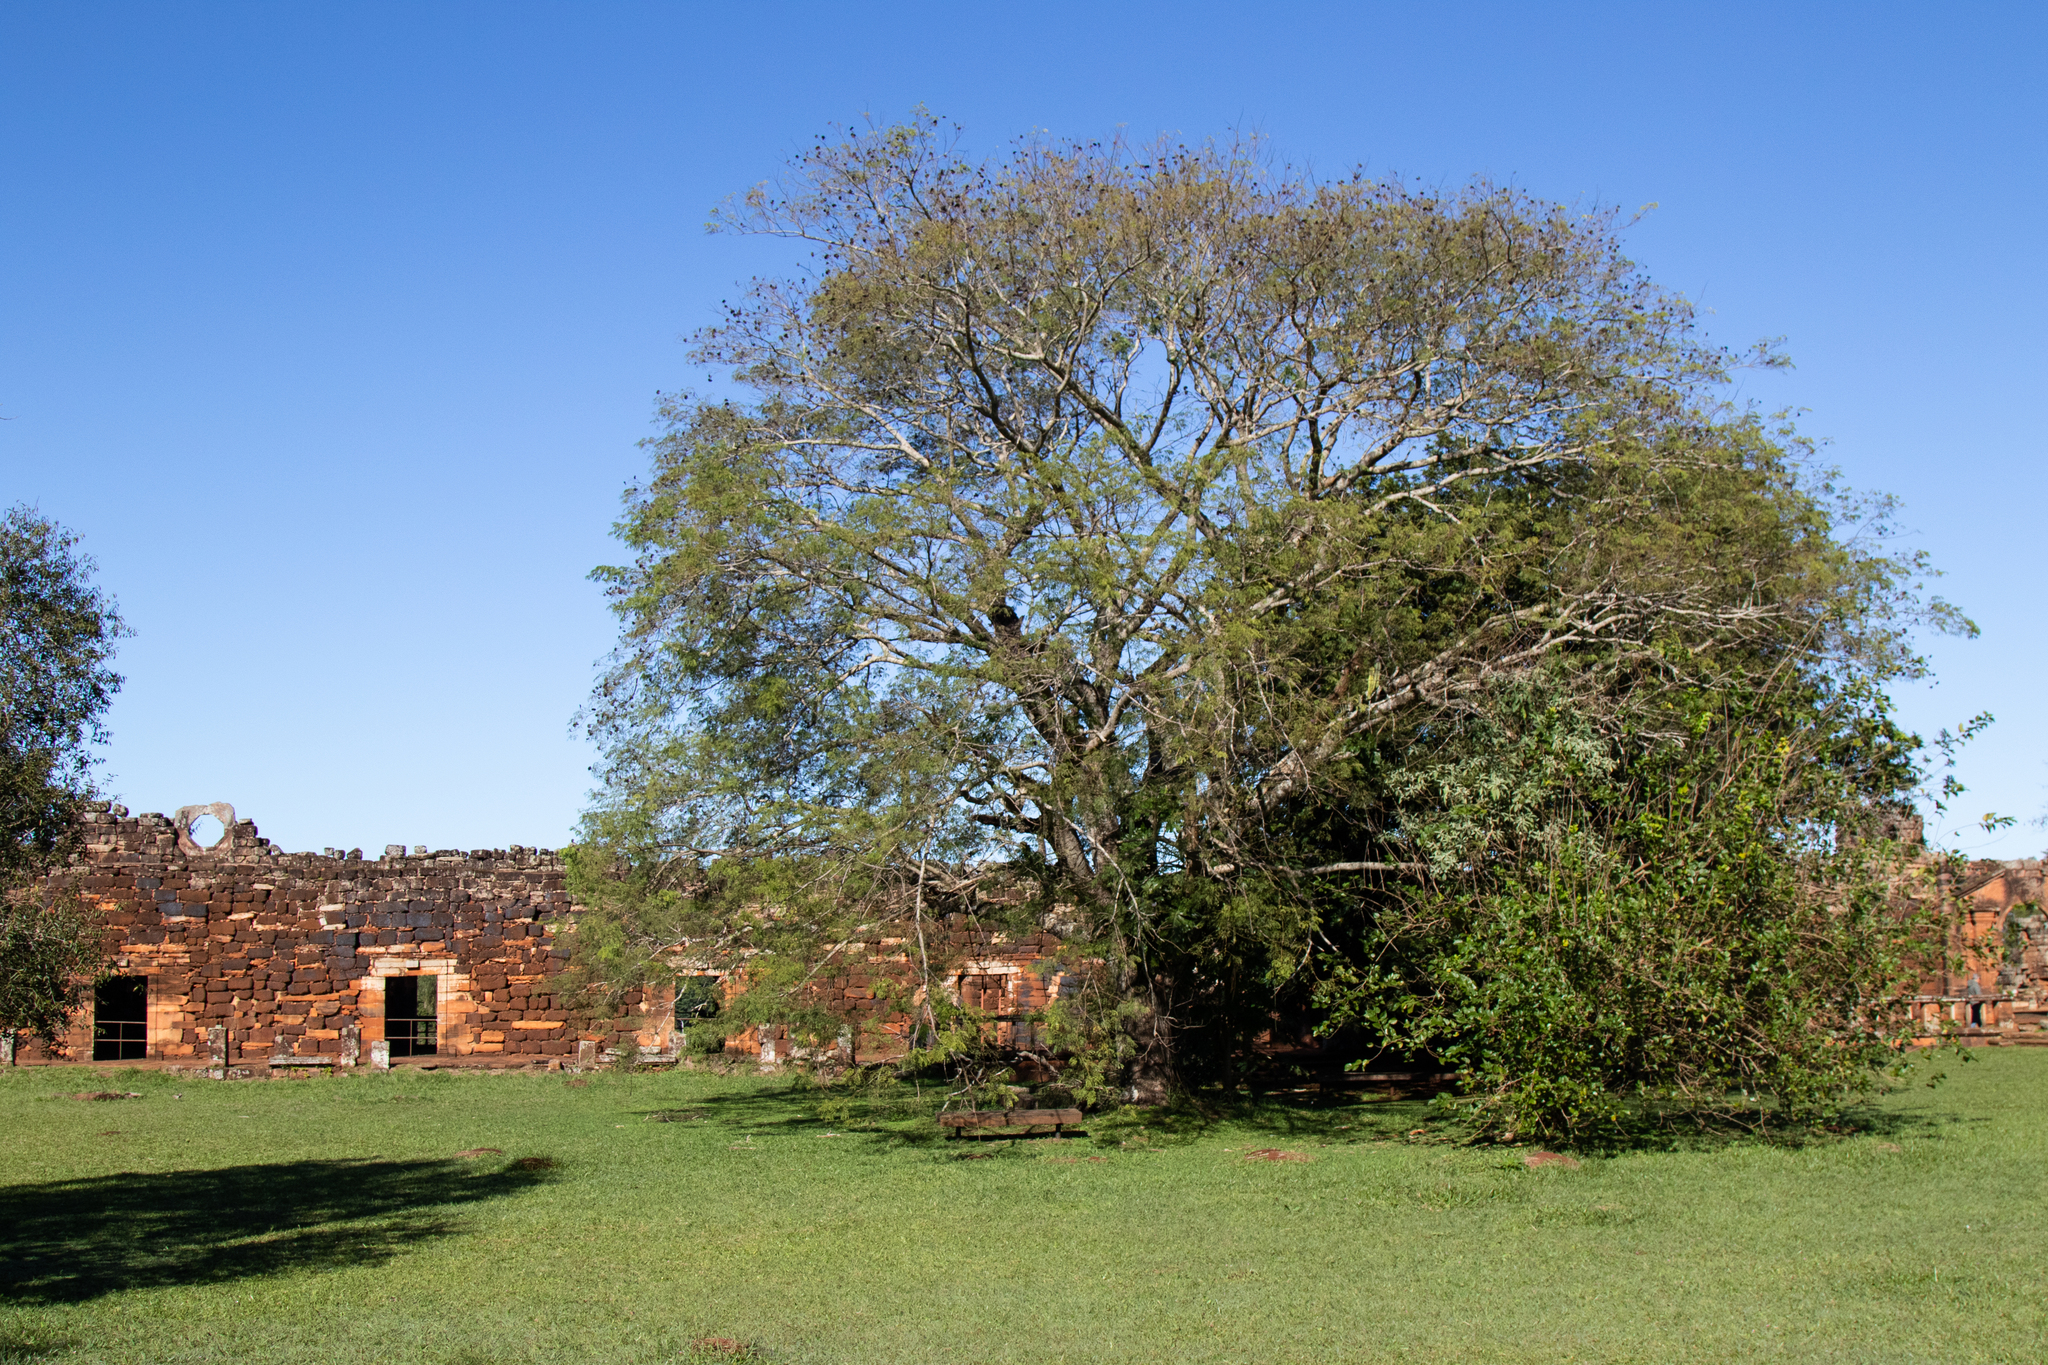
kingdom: Plantae
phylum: Tracheophyta
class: Magnoliopsida
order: Fabales
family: Fabaceae
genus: Enterolobium
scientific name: Enterolobium contortisiliquum
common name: Pacara earpod tree
